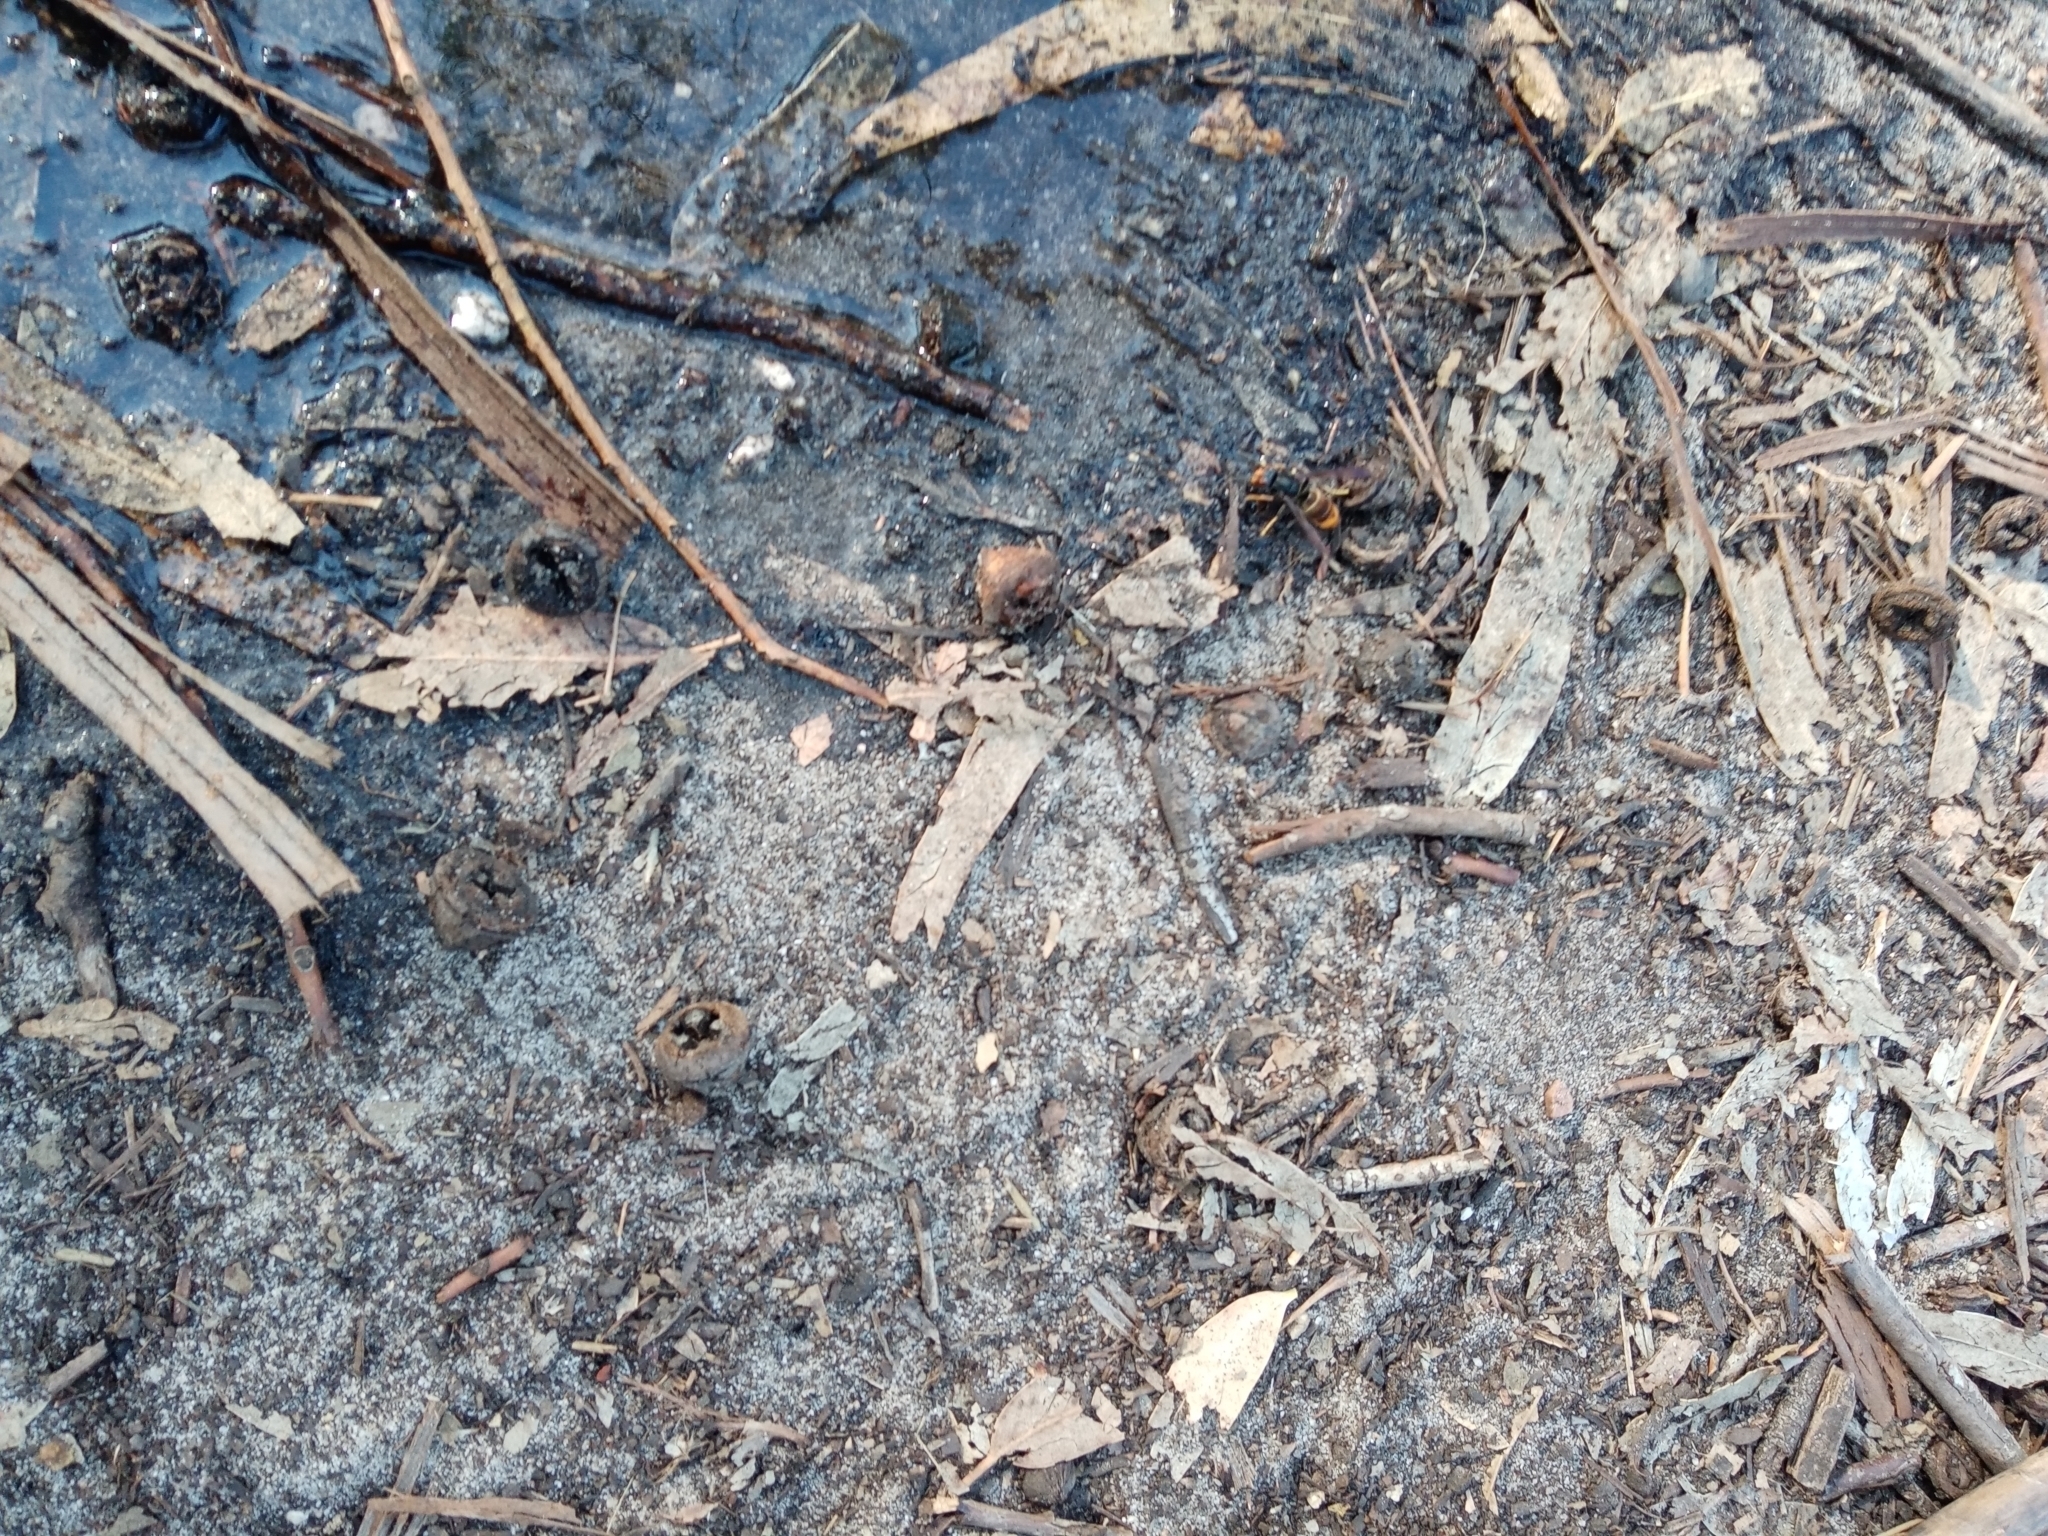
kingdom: Animalia
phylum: Arthropoda
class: Insecta
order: Hymenoptera
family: Vespidae
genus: Vespa
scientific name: Vespa velutina
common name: Asian hornet
